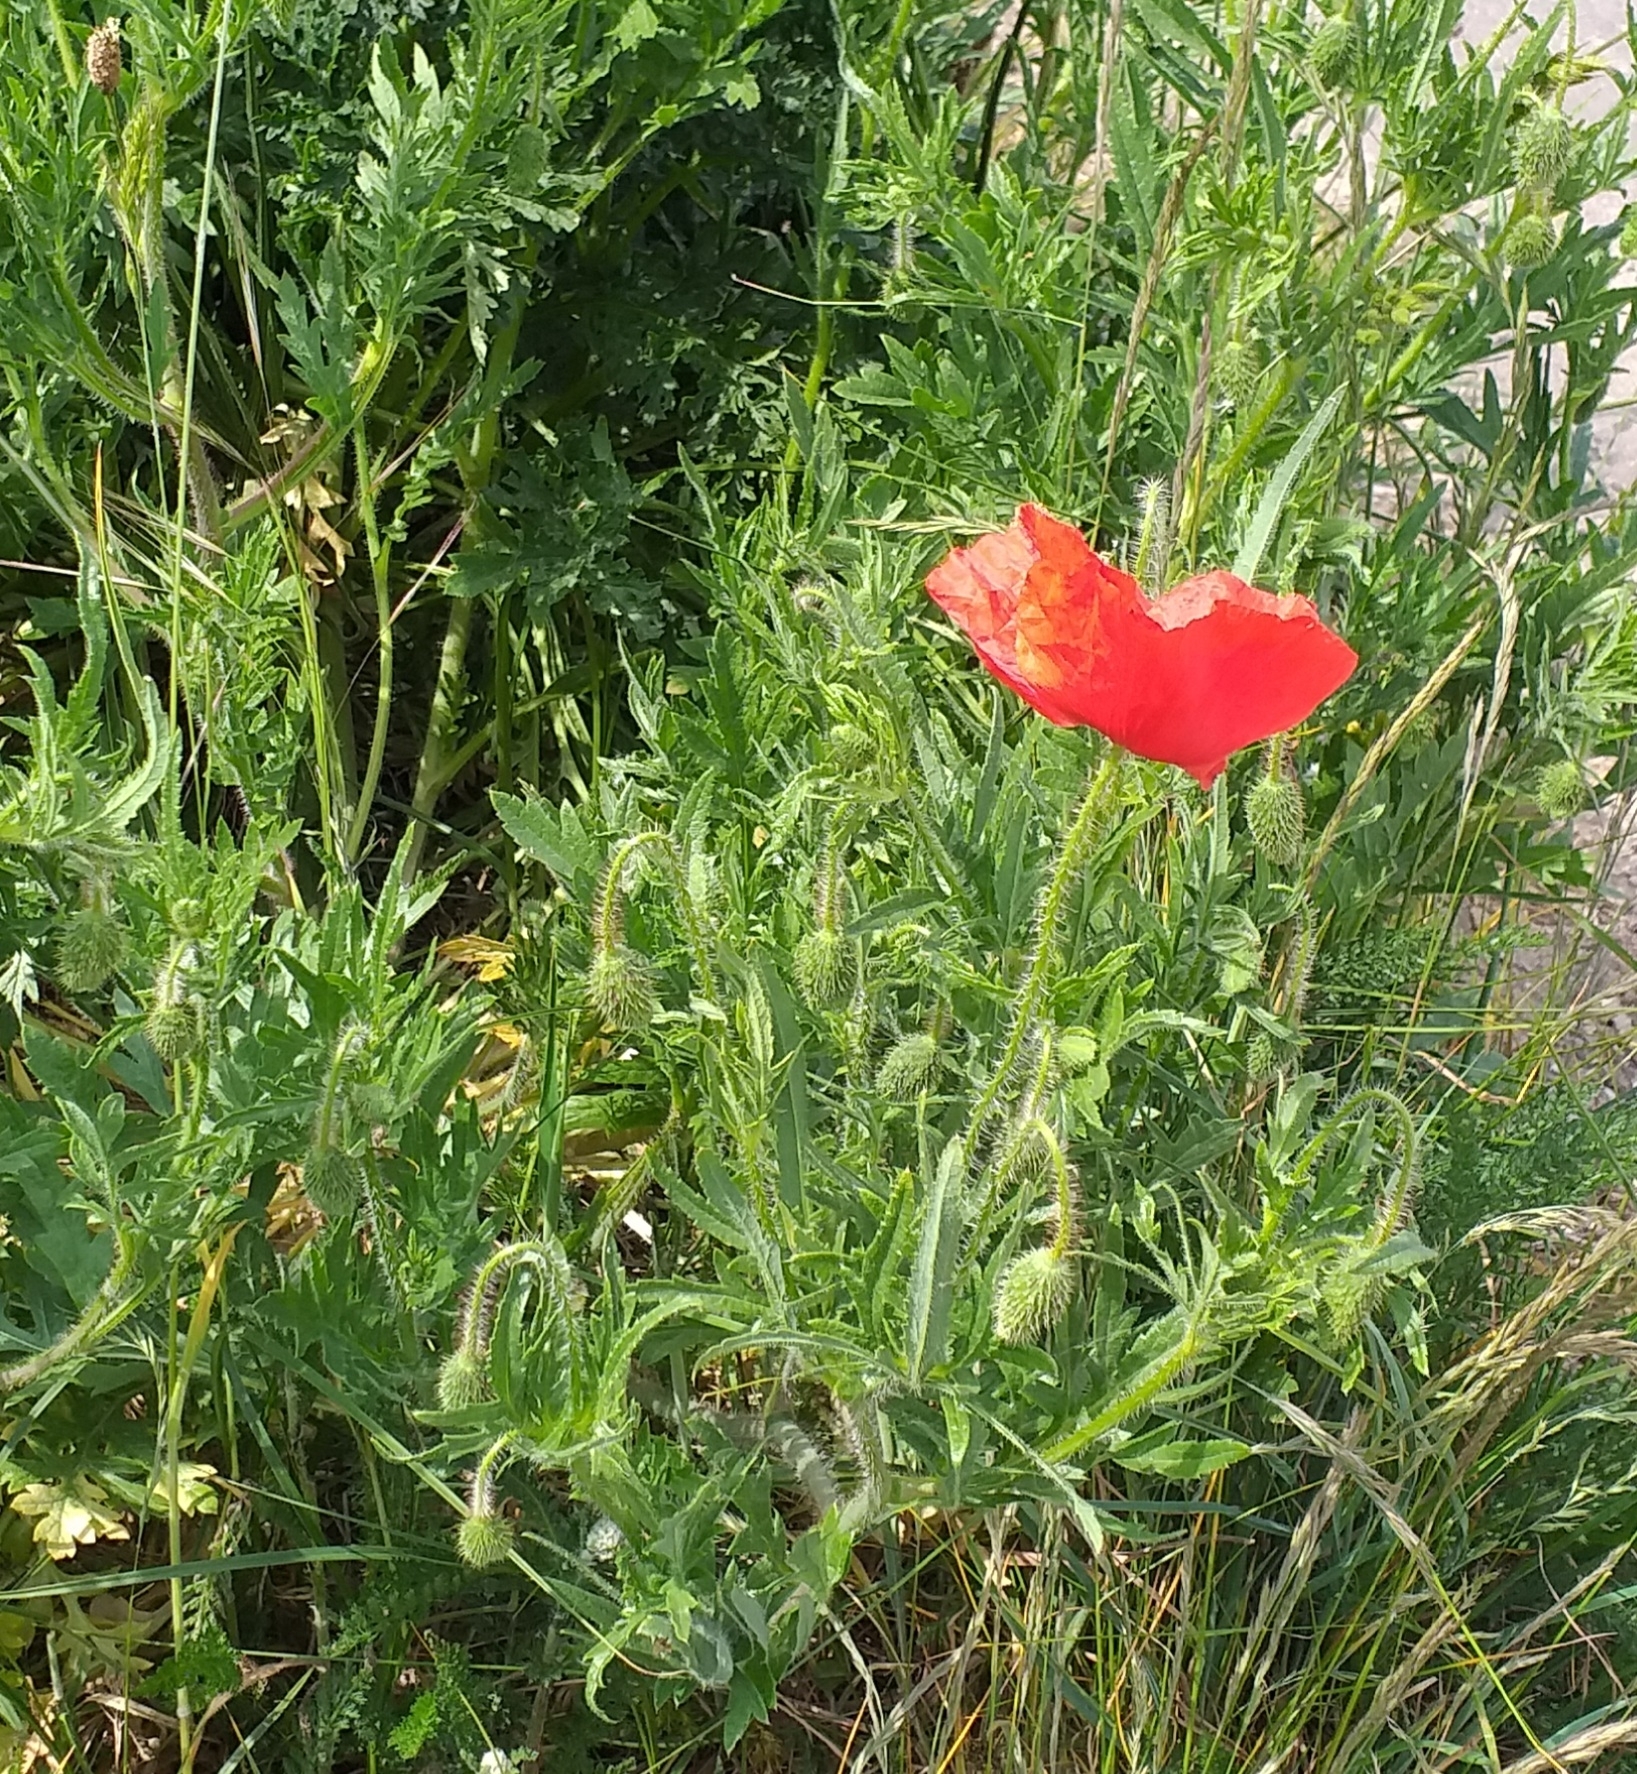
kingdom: Plantae
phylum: Tracheophyta
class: Magnoliopsida
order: Ranunculales
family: Papaveraceae
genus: Papaver
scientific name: Papaver rhoeas
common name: Corn poppy
